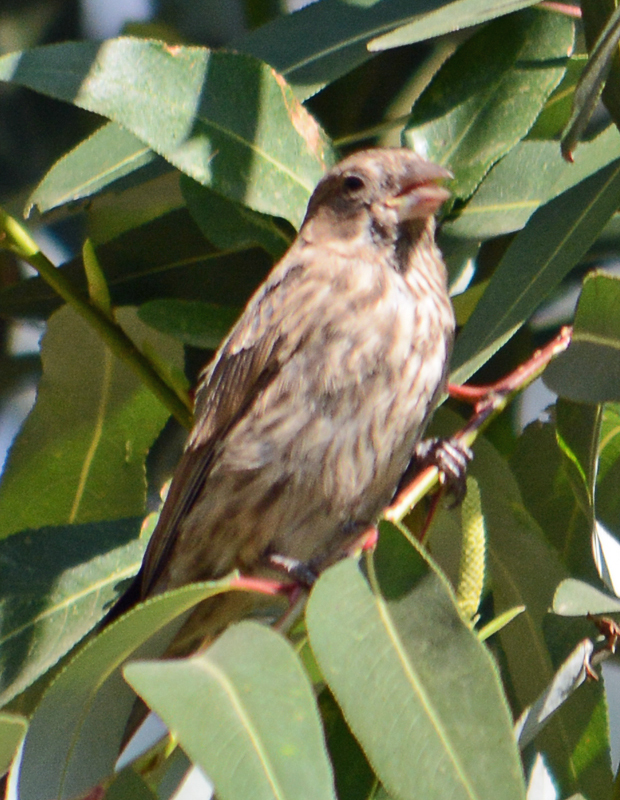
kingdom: Animalia
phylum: Chordata
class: Aves
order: Passeriformes
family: Fringillidae
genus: Haemorhous
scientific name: Haemorhous mexicanus
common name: House finch
